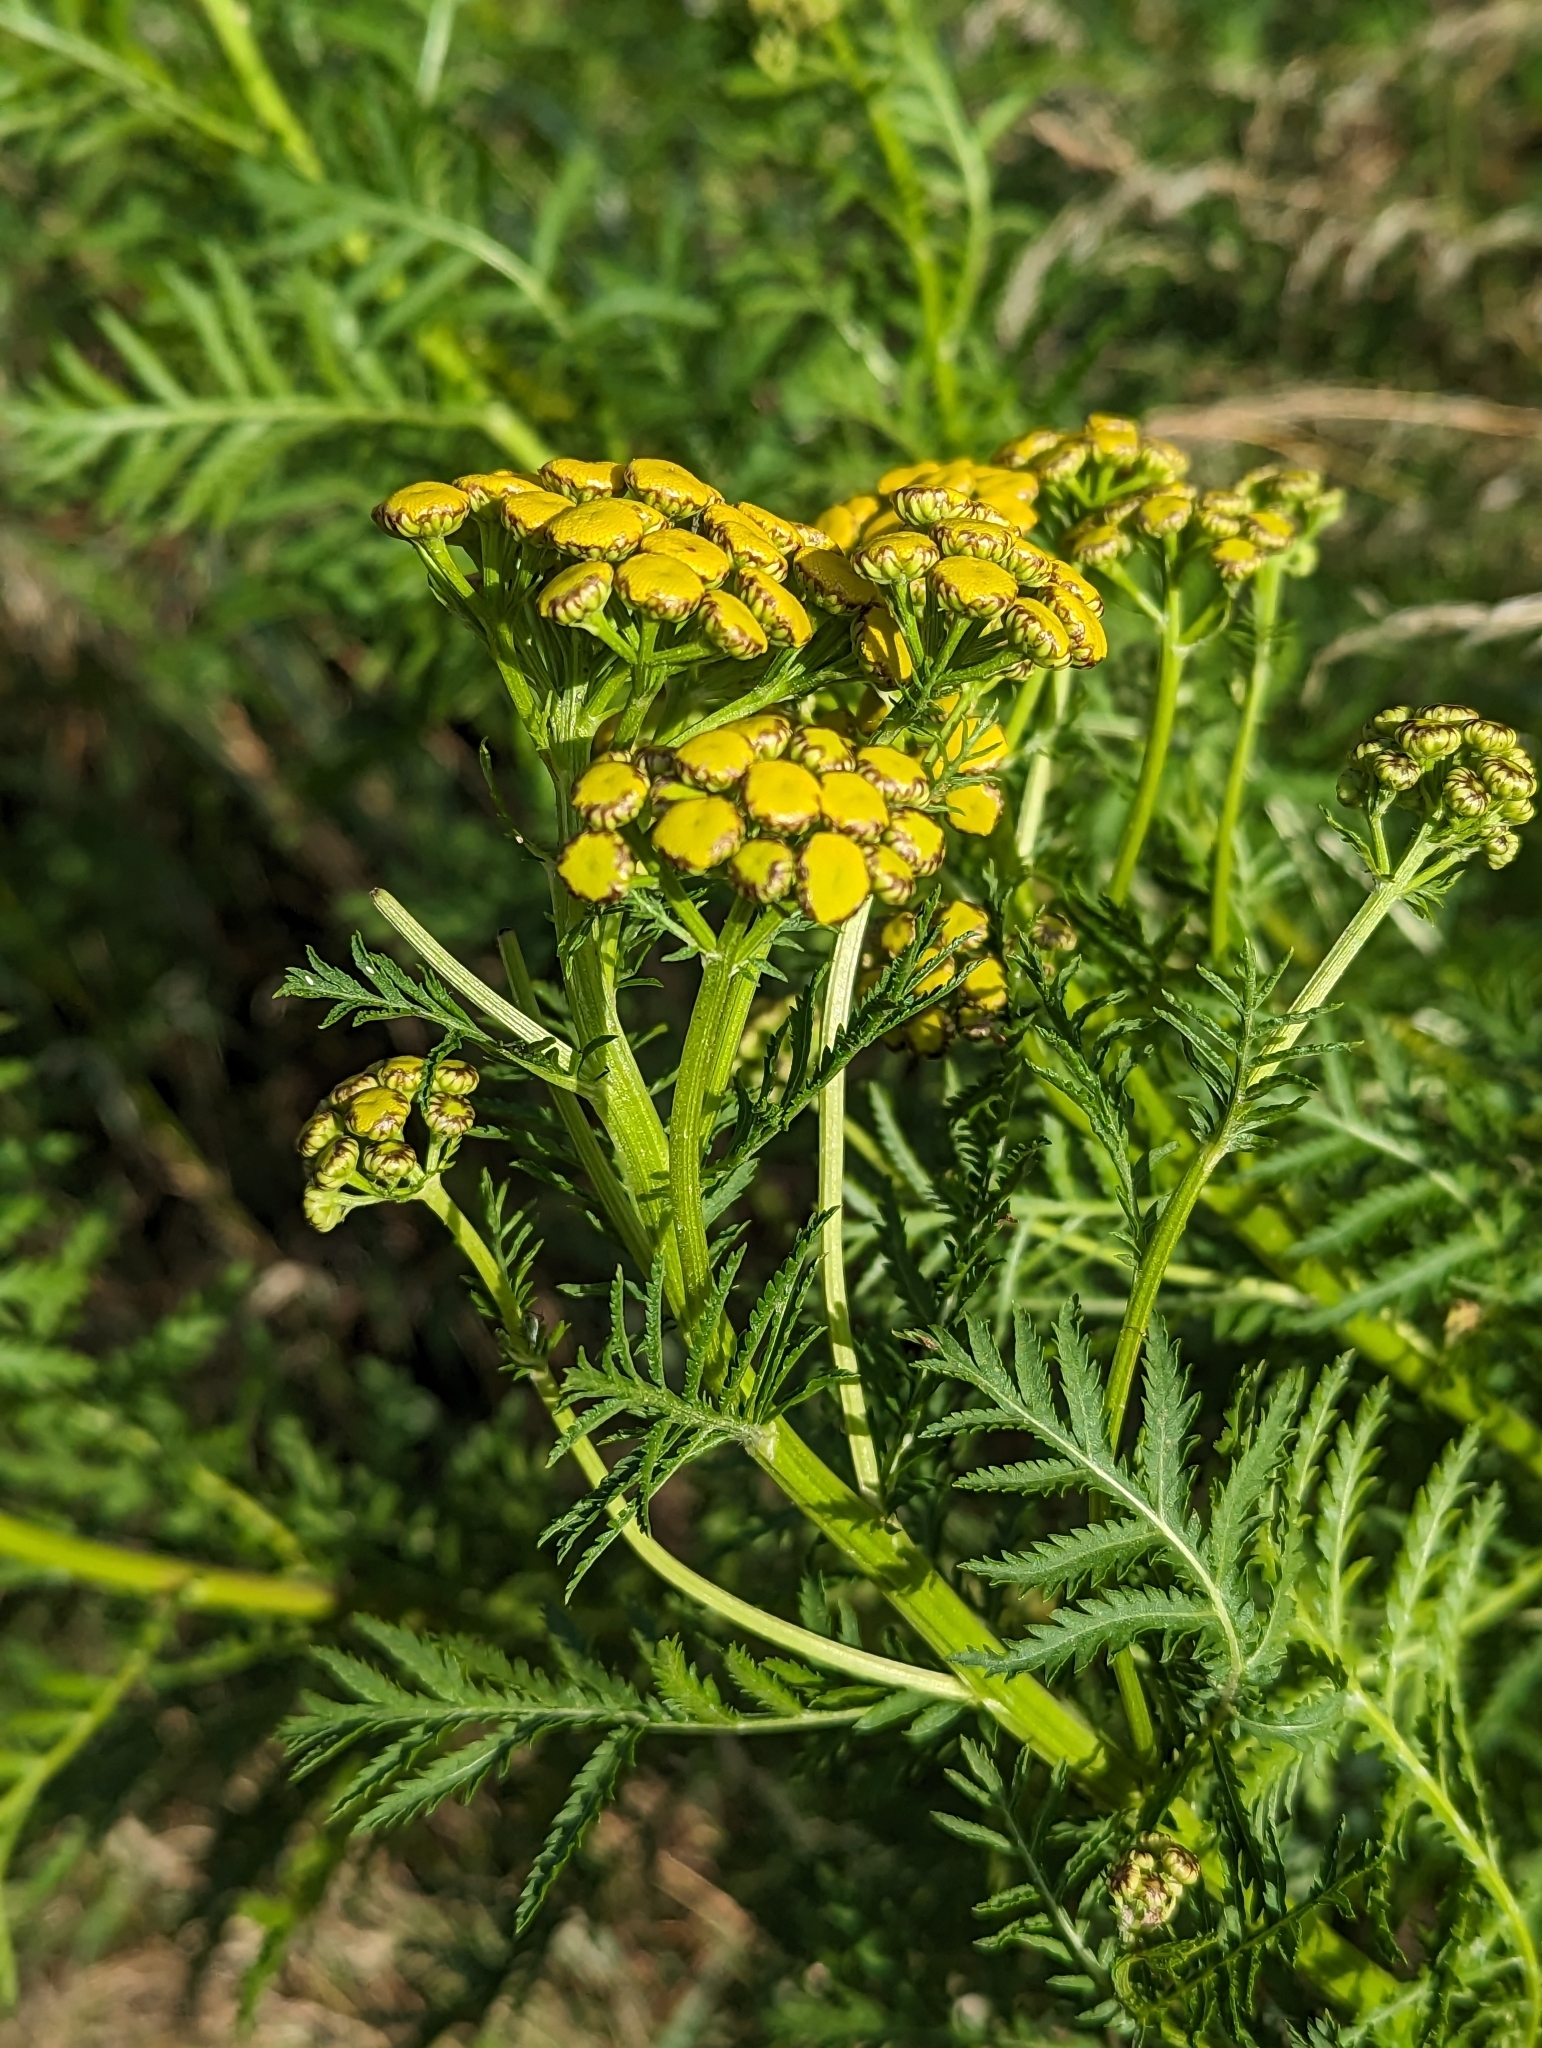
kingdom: Plantae
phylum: Tracheophyta
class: Magnoliopsida
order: Asterales
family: Asteraceae
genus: Tanacetum
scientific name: Tanacetum vulgare
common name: Common tansy
